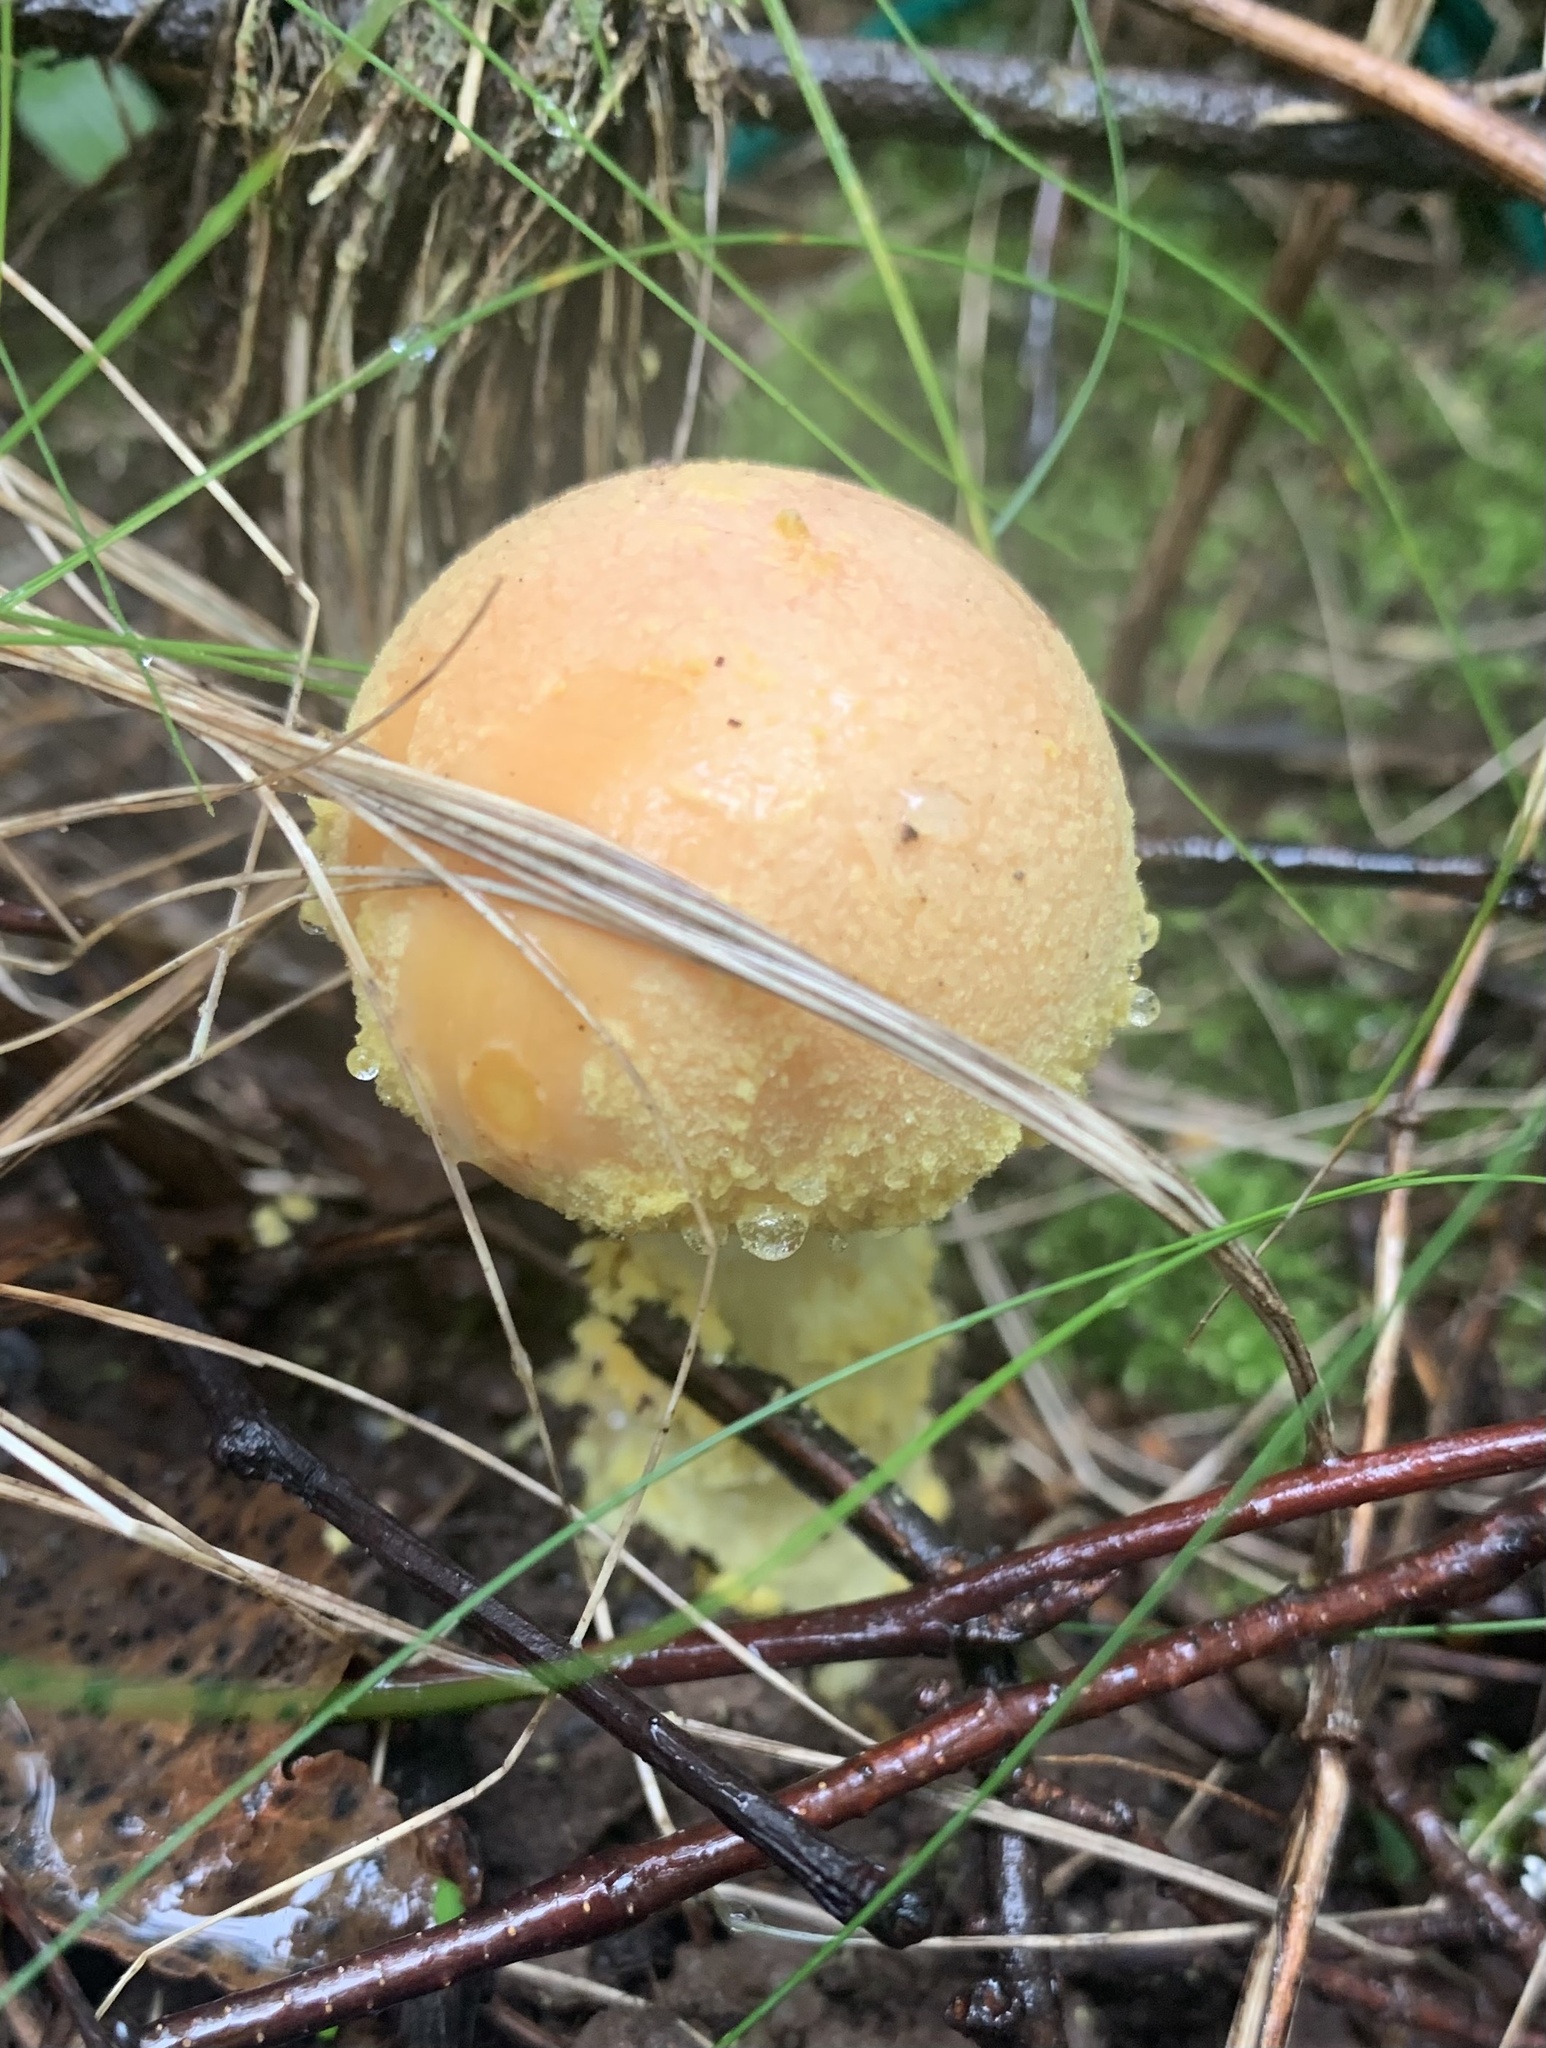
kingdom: Fungi
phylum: Basidiomycota
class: Agaricomycetes
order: Agaricales
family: Amanitaceae
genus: Amanita
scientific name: Amanita wellsii
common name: Salmon amanita
